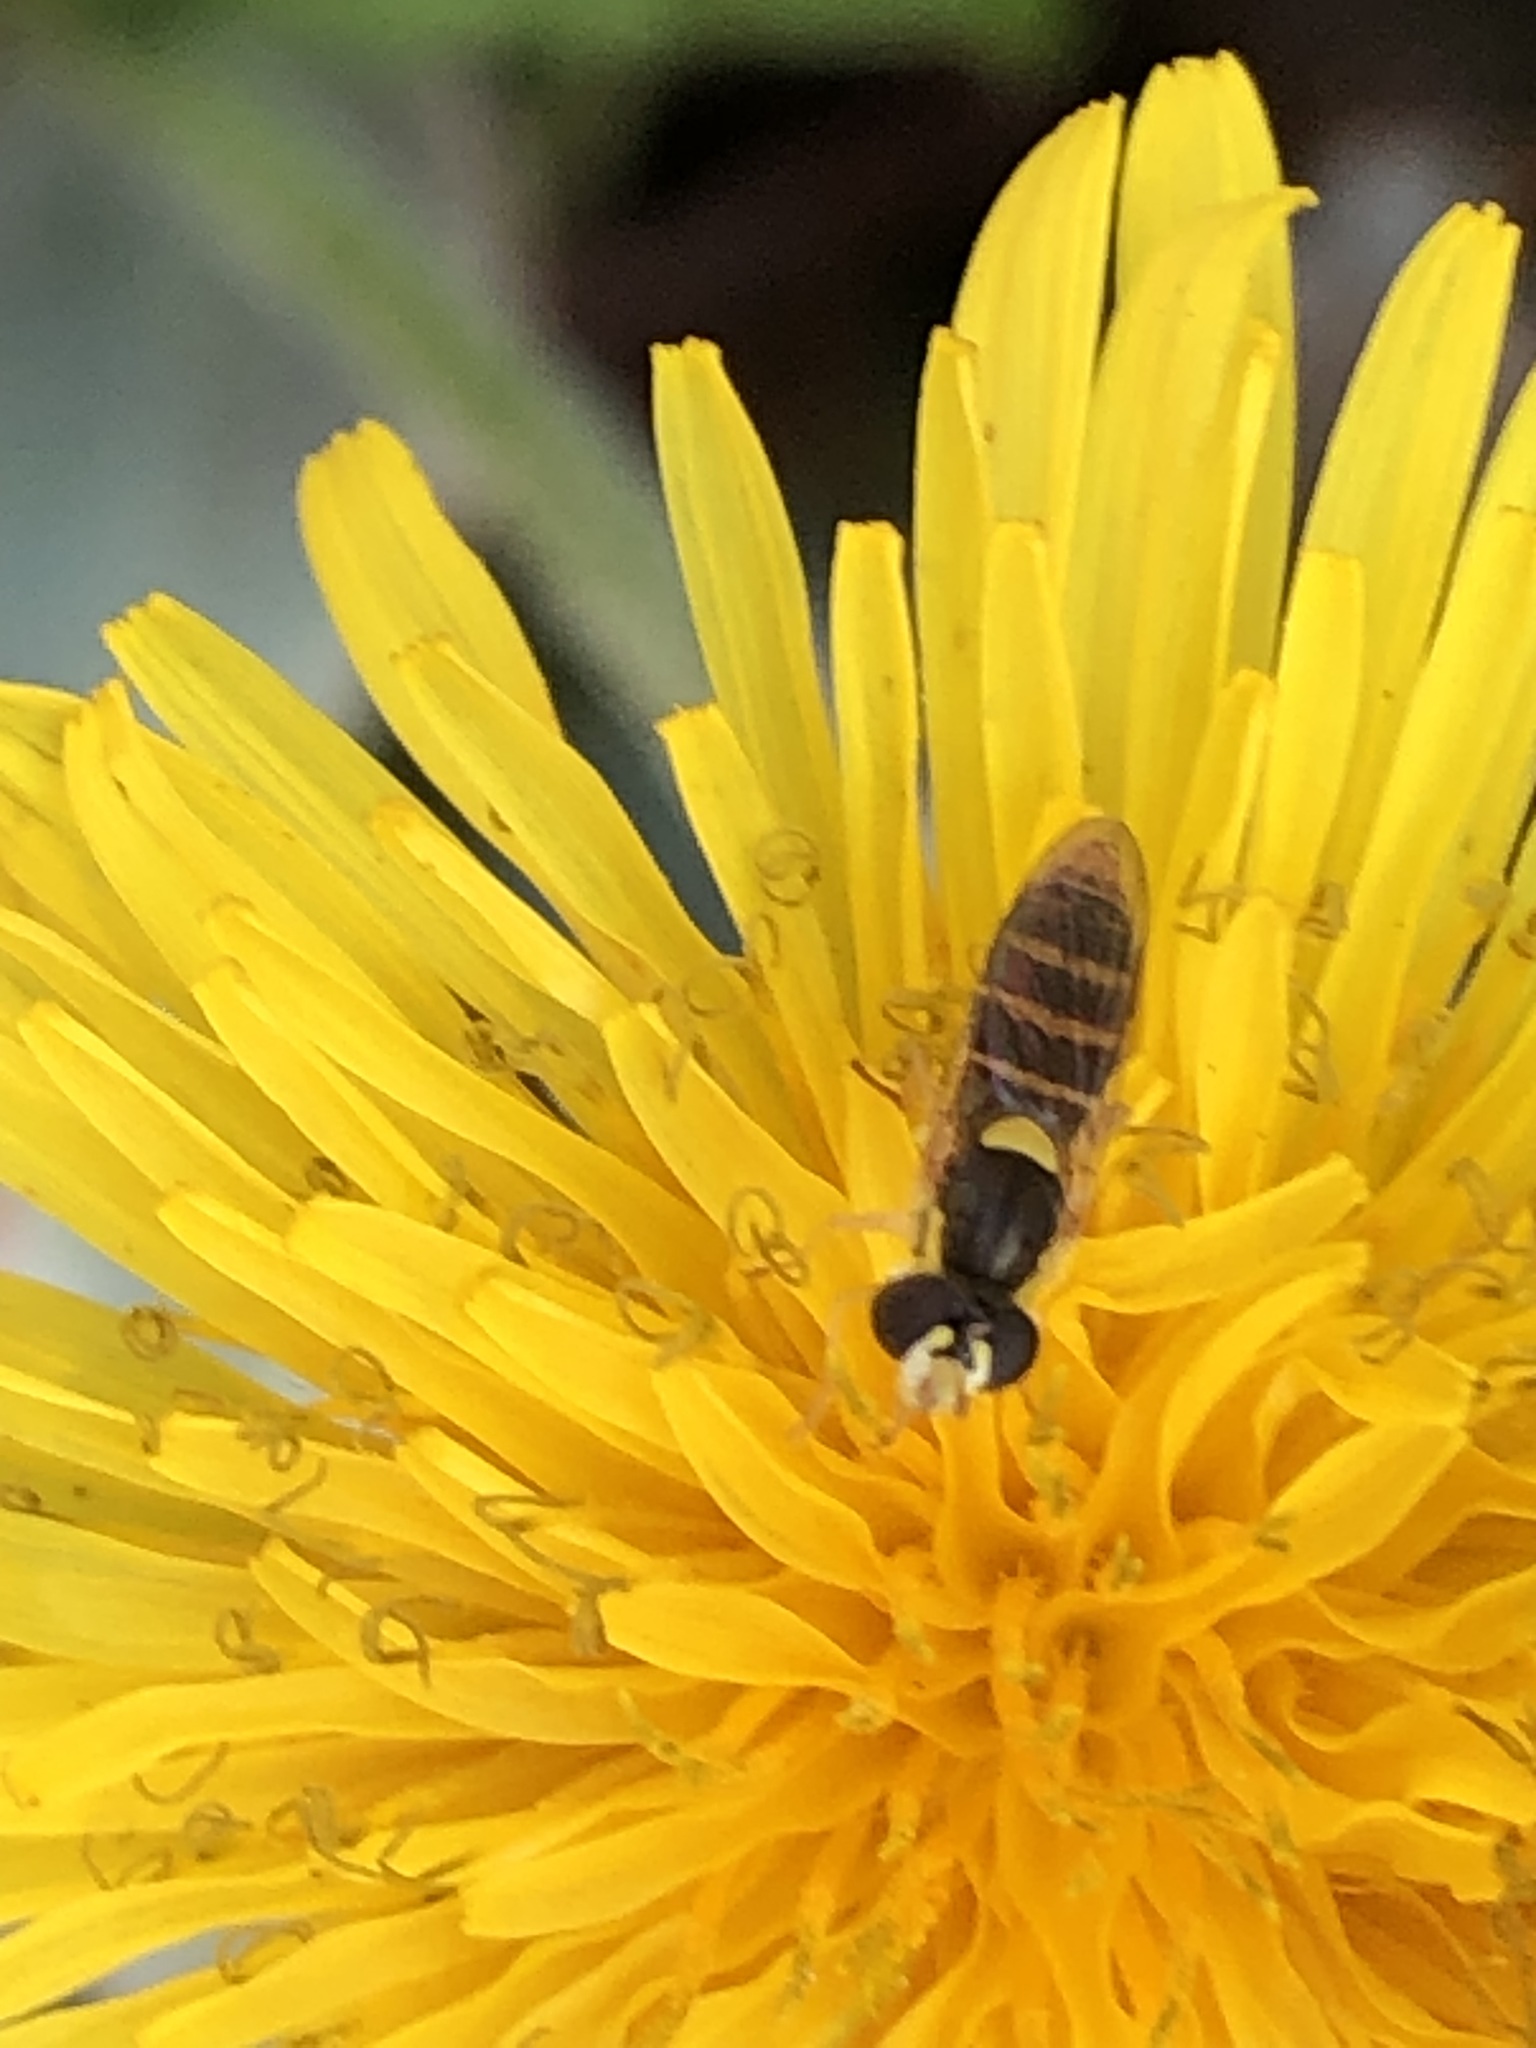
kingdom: Animalia
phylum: Arthropoda
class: Insecta
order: Diptera
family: Syrphidae
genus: Sphaerophoria
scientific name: Sphaerophoria sulphuripes
